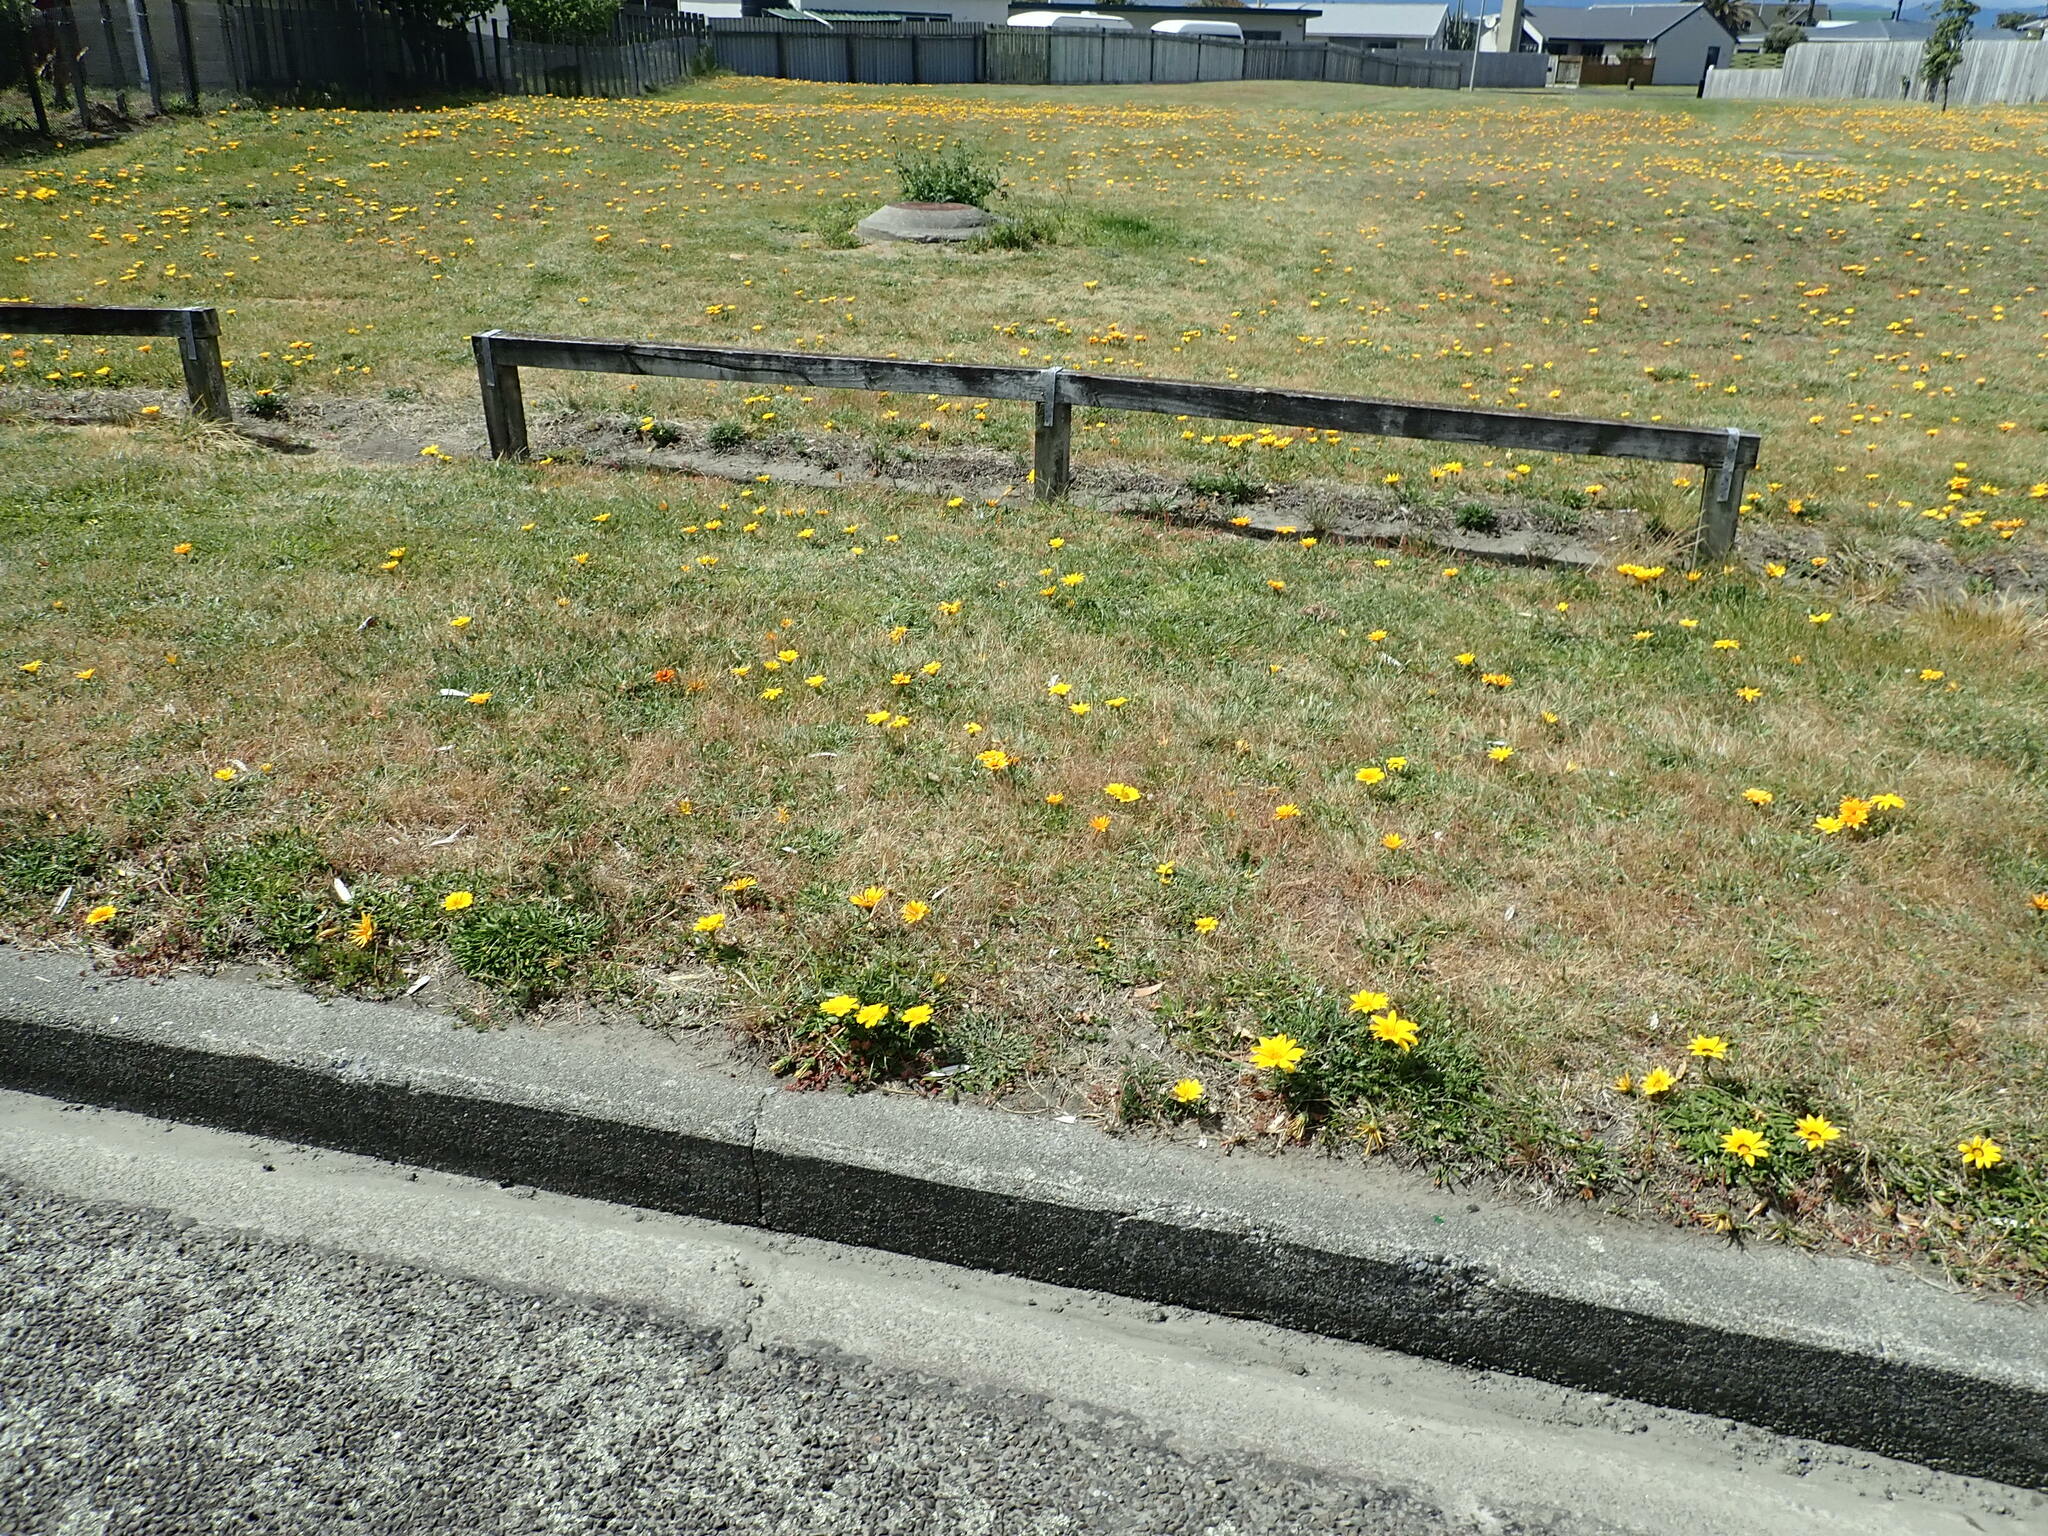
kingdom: Plantae
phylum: Tracheophyta
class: Magnoliopsida
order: Asterales
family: Asteraceae
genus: Gazania
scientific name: Gazania splendens
